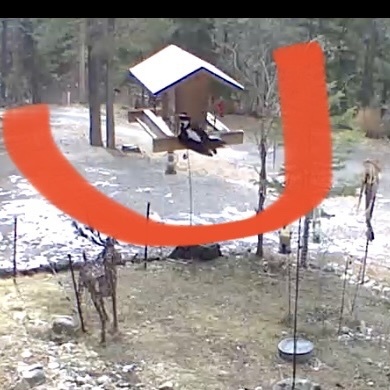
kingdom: Animalia
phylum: Chordata
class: Aves
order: Piciformes
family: Picidae
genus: Leuconotopicus
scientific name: Leuconotopicus villosus
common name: Hairy woodpecker
